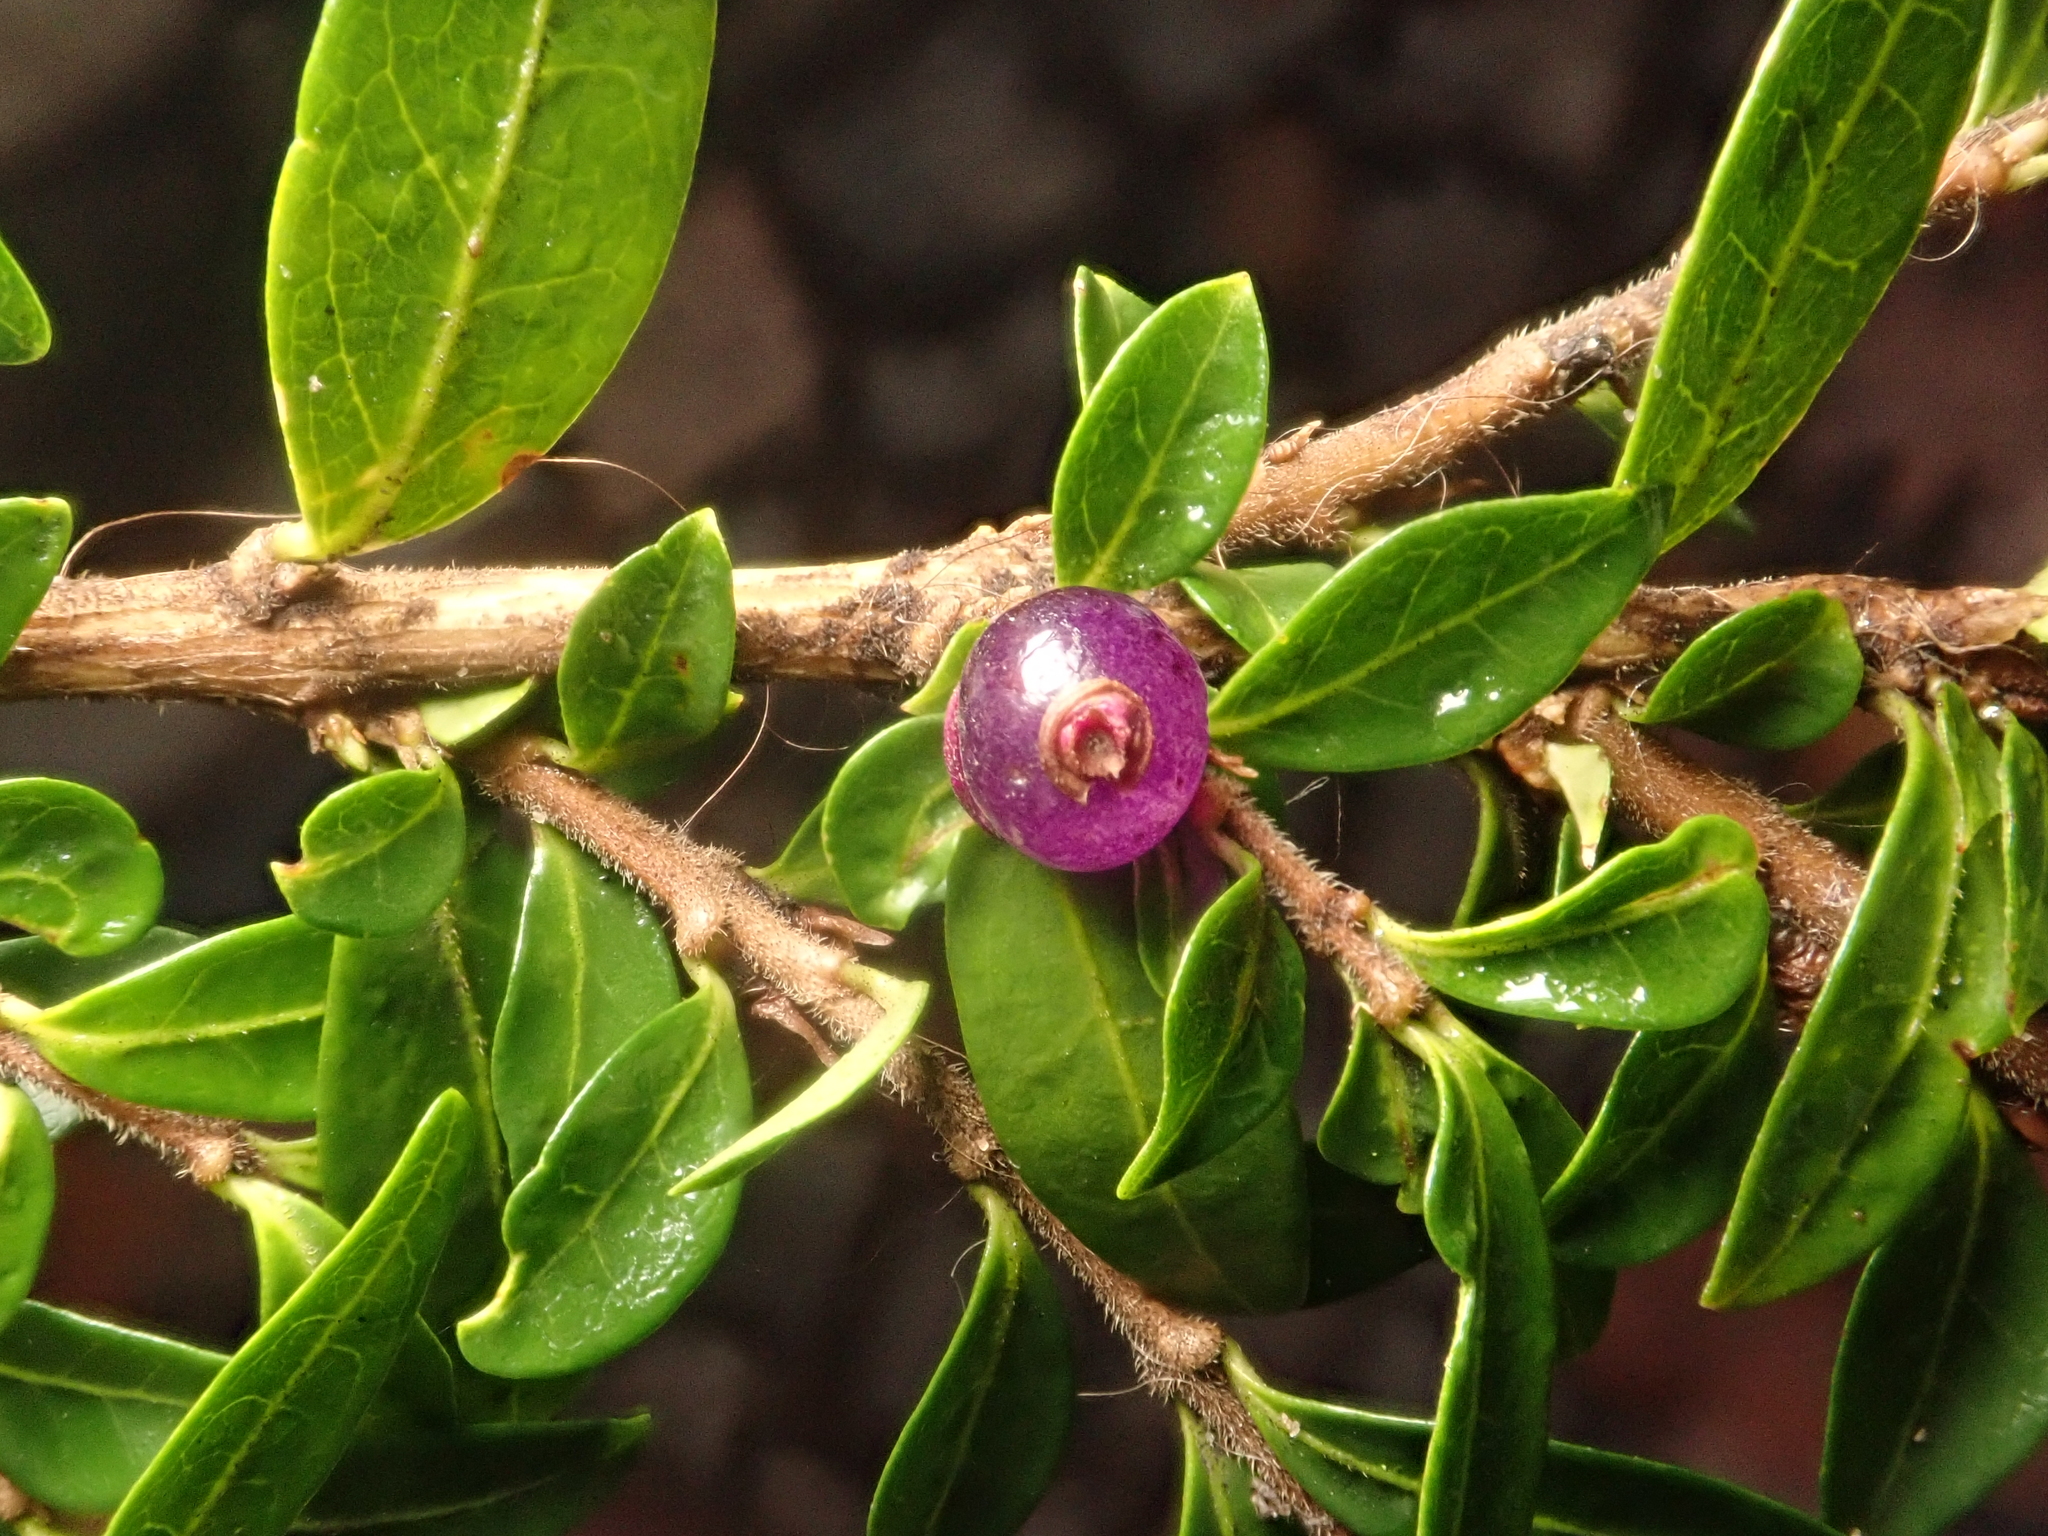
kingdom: Plantae
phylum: Tracheophyta
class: Magnoliopsida
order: Dipsacales
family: Caprifoliaceae
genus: Lonicera
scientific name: Lonicera ligustrina
